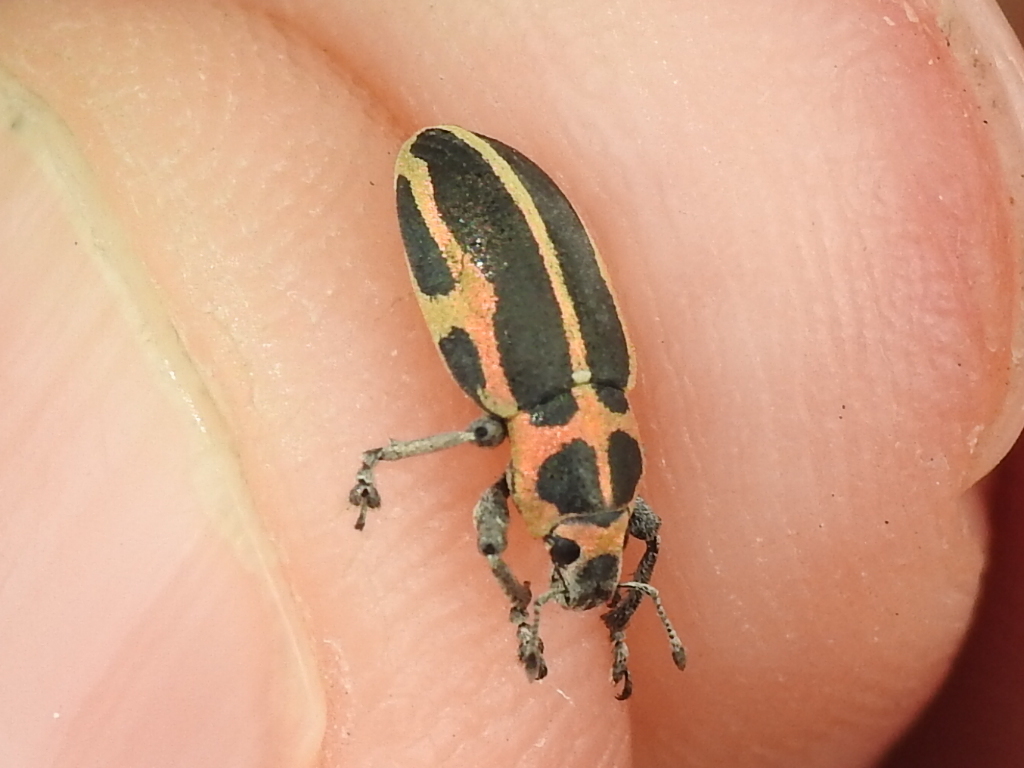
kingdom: Animalia
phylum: Arthropoda
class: Insecta
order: Coleoptera
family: Curculionidae
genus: Eudiagogus
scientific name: Eudiagogus pulcher
